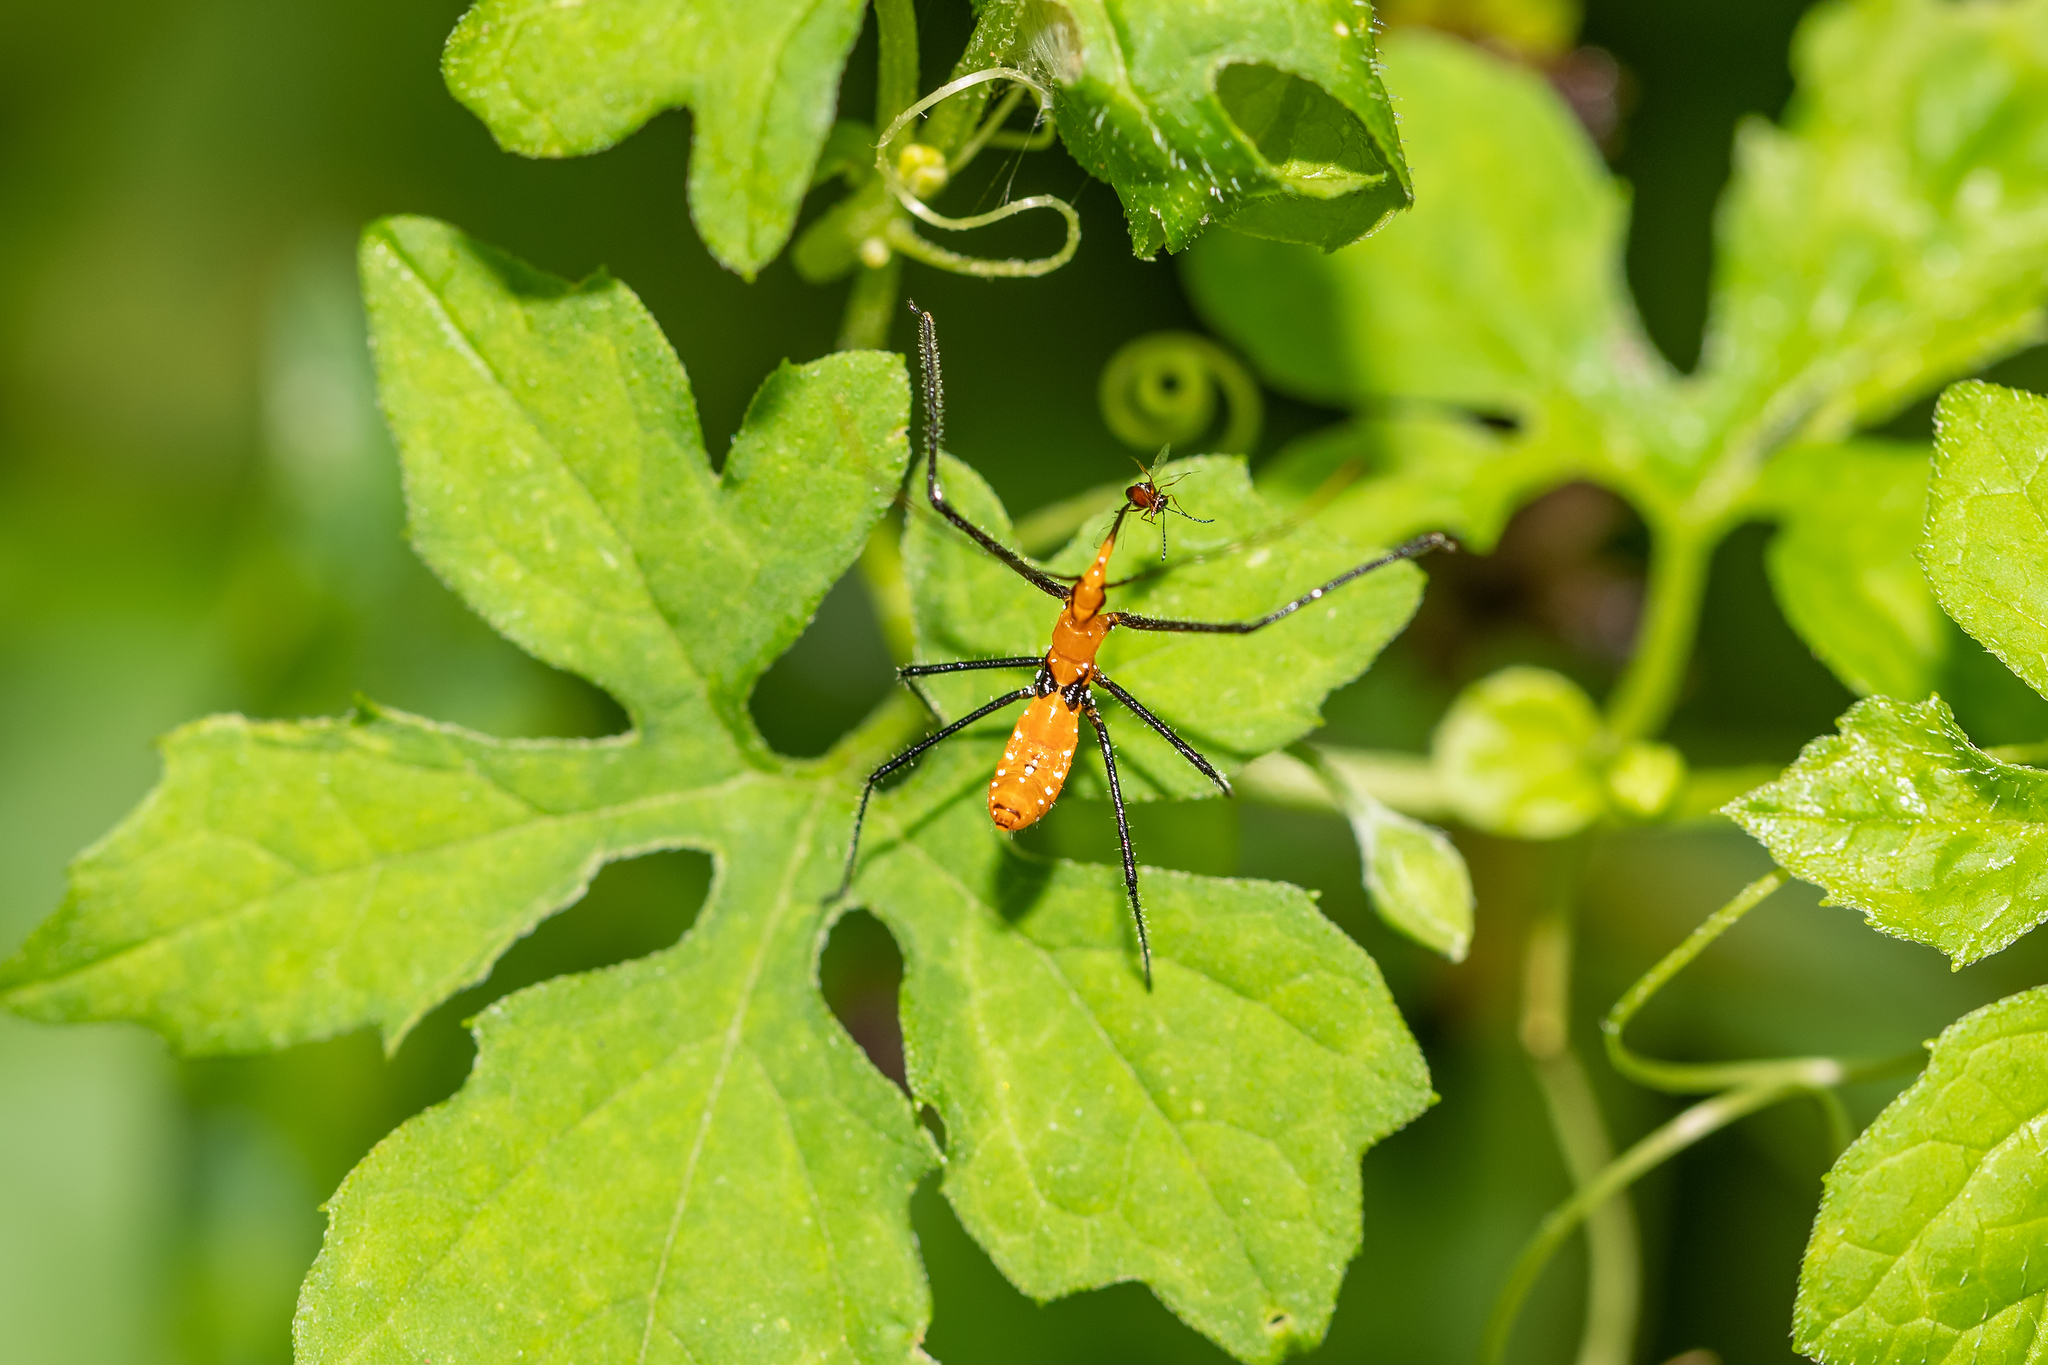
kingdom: Animalia
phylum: Arthropoda
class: Insecta
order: Hemiptera
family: Reduviidae
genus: Zelus
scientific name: Zelus longipes
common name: Milkweed assassin bug
